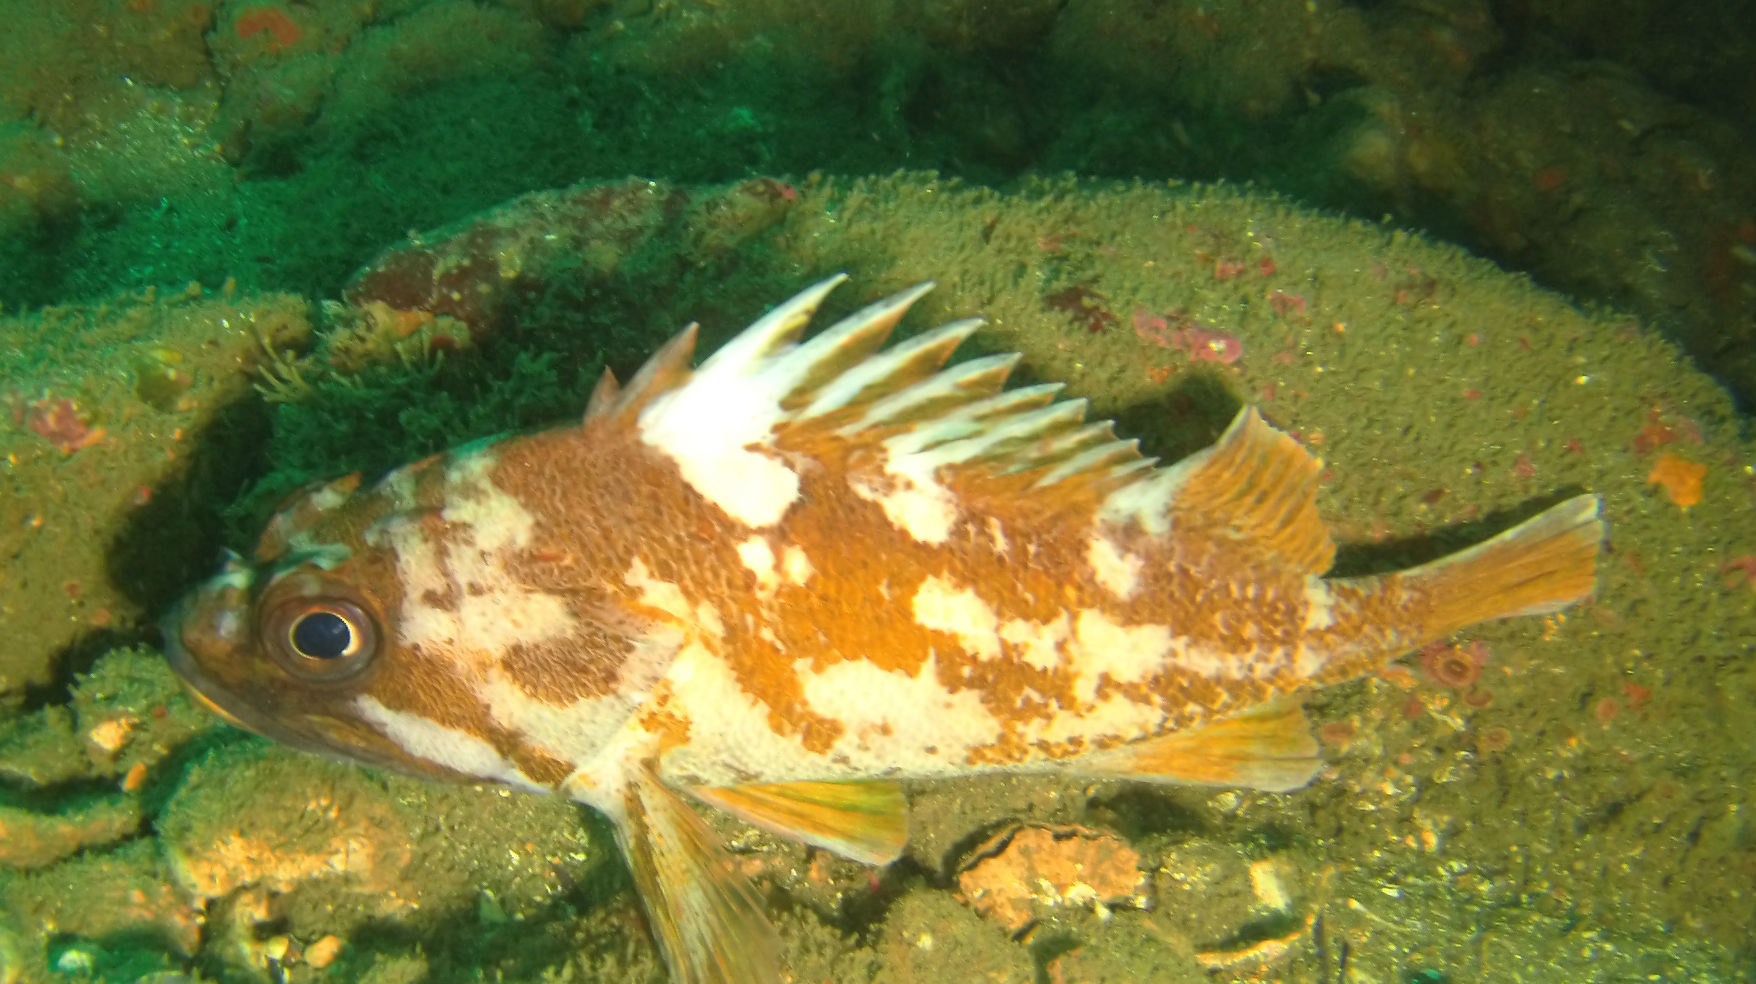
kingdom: Animalia
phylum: Chordata
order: Scorpaeniformes
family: Sebastidae
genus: Sebastes
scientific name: Sebastes
